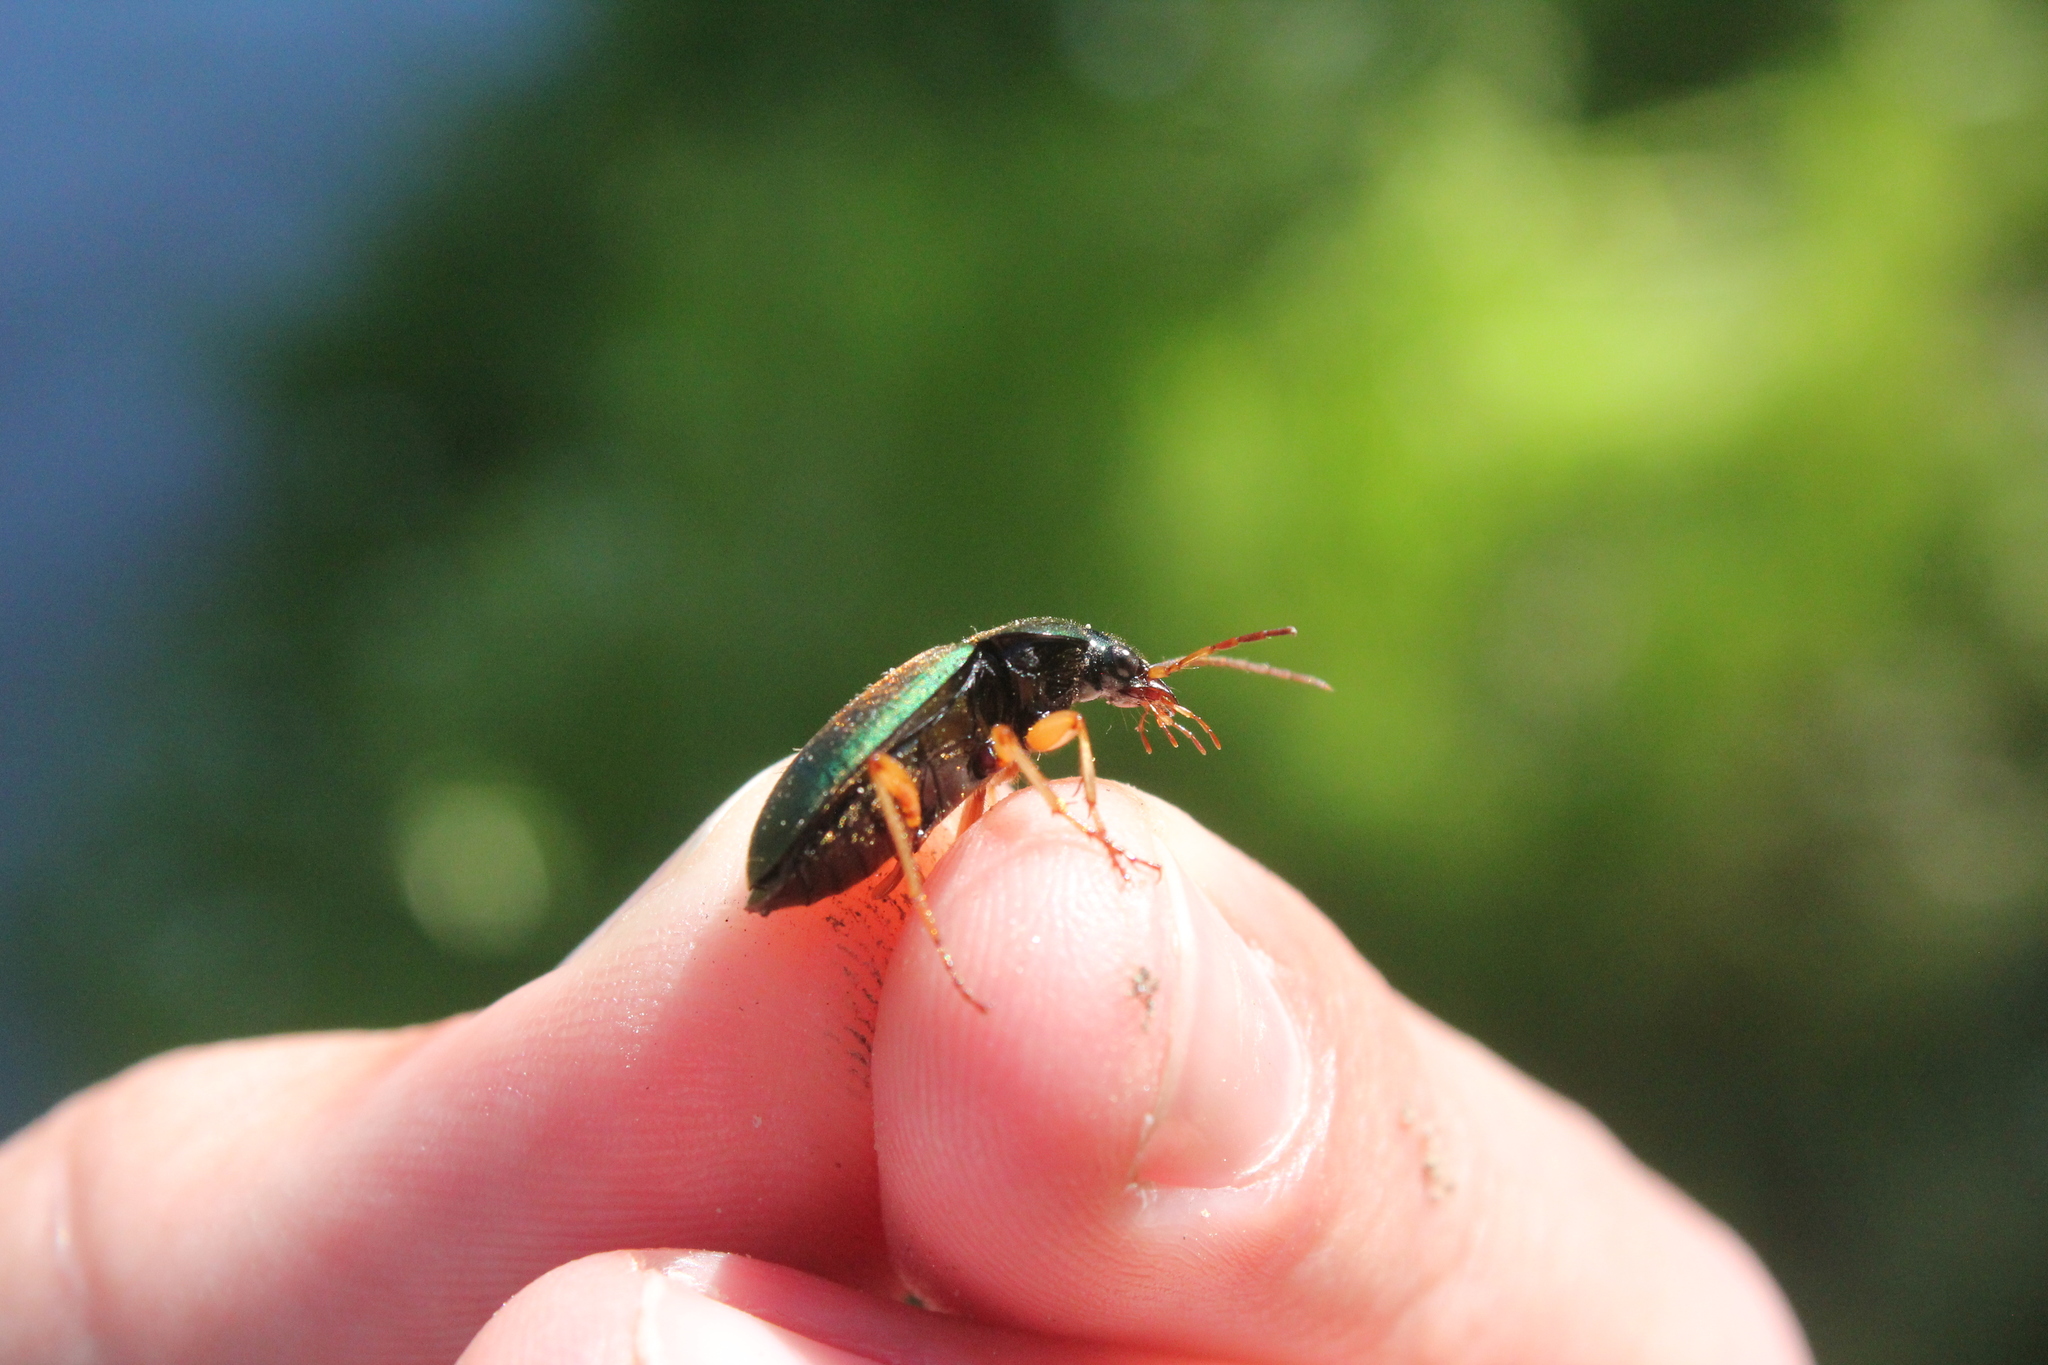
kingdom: Animalia
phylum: Arthropoda
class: Insecta
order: Coleoptera
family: Carabidae
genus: Chlaenius
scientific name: Chlaenius sericeus
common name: Green pubescent ground beetle
